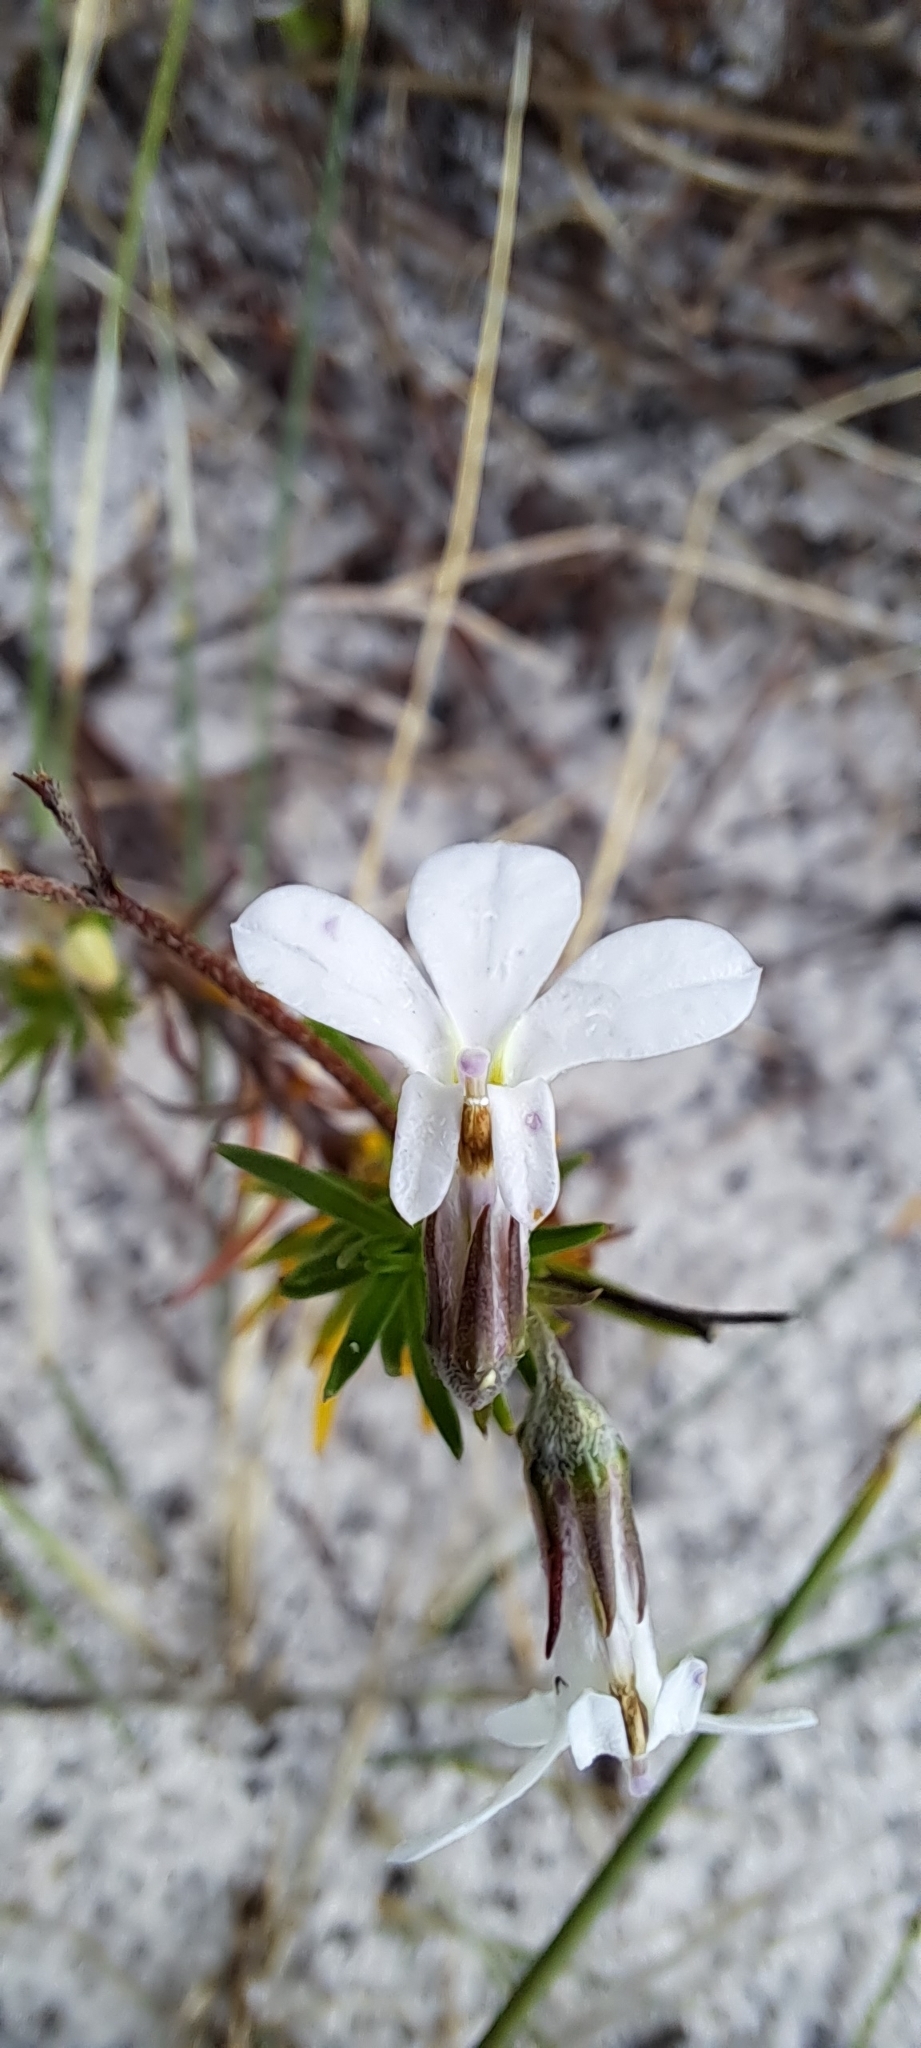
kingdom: Plantae
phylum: Tracheophyta
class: Magnoliopsida
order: Asterales
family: Campanulaceae
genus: Lobelia
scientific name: Lobelia pinifolia
